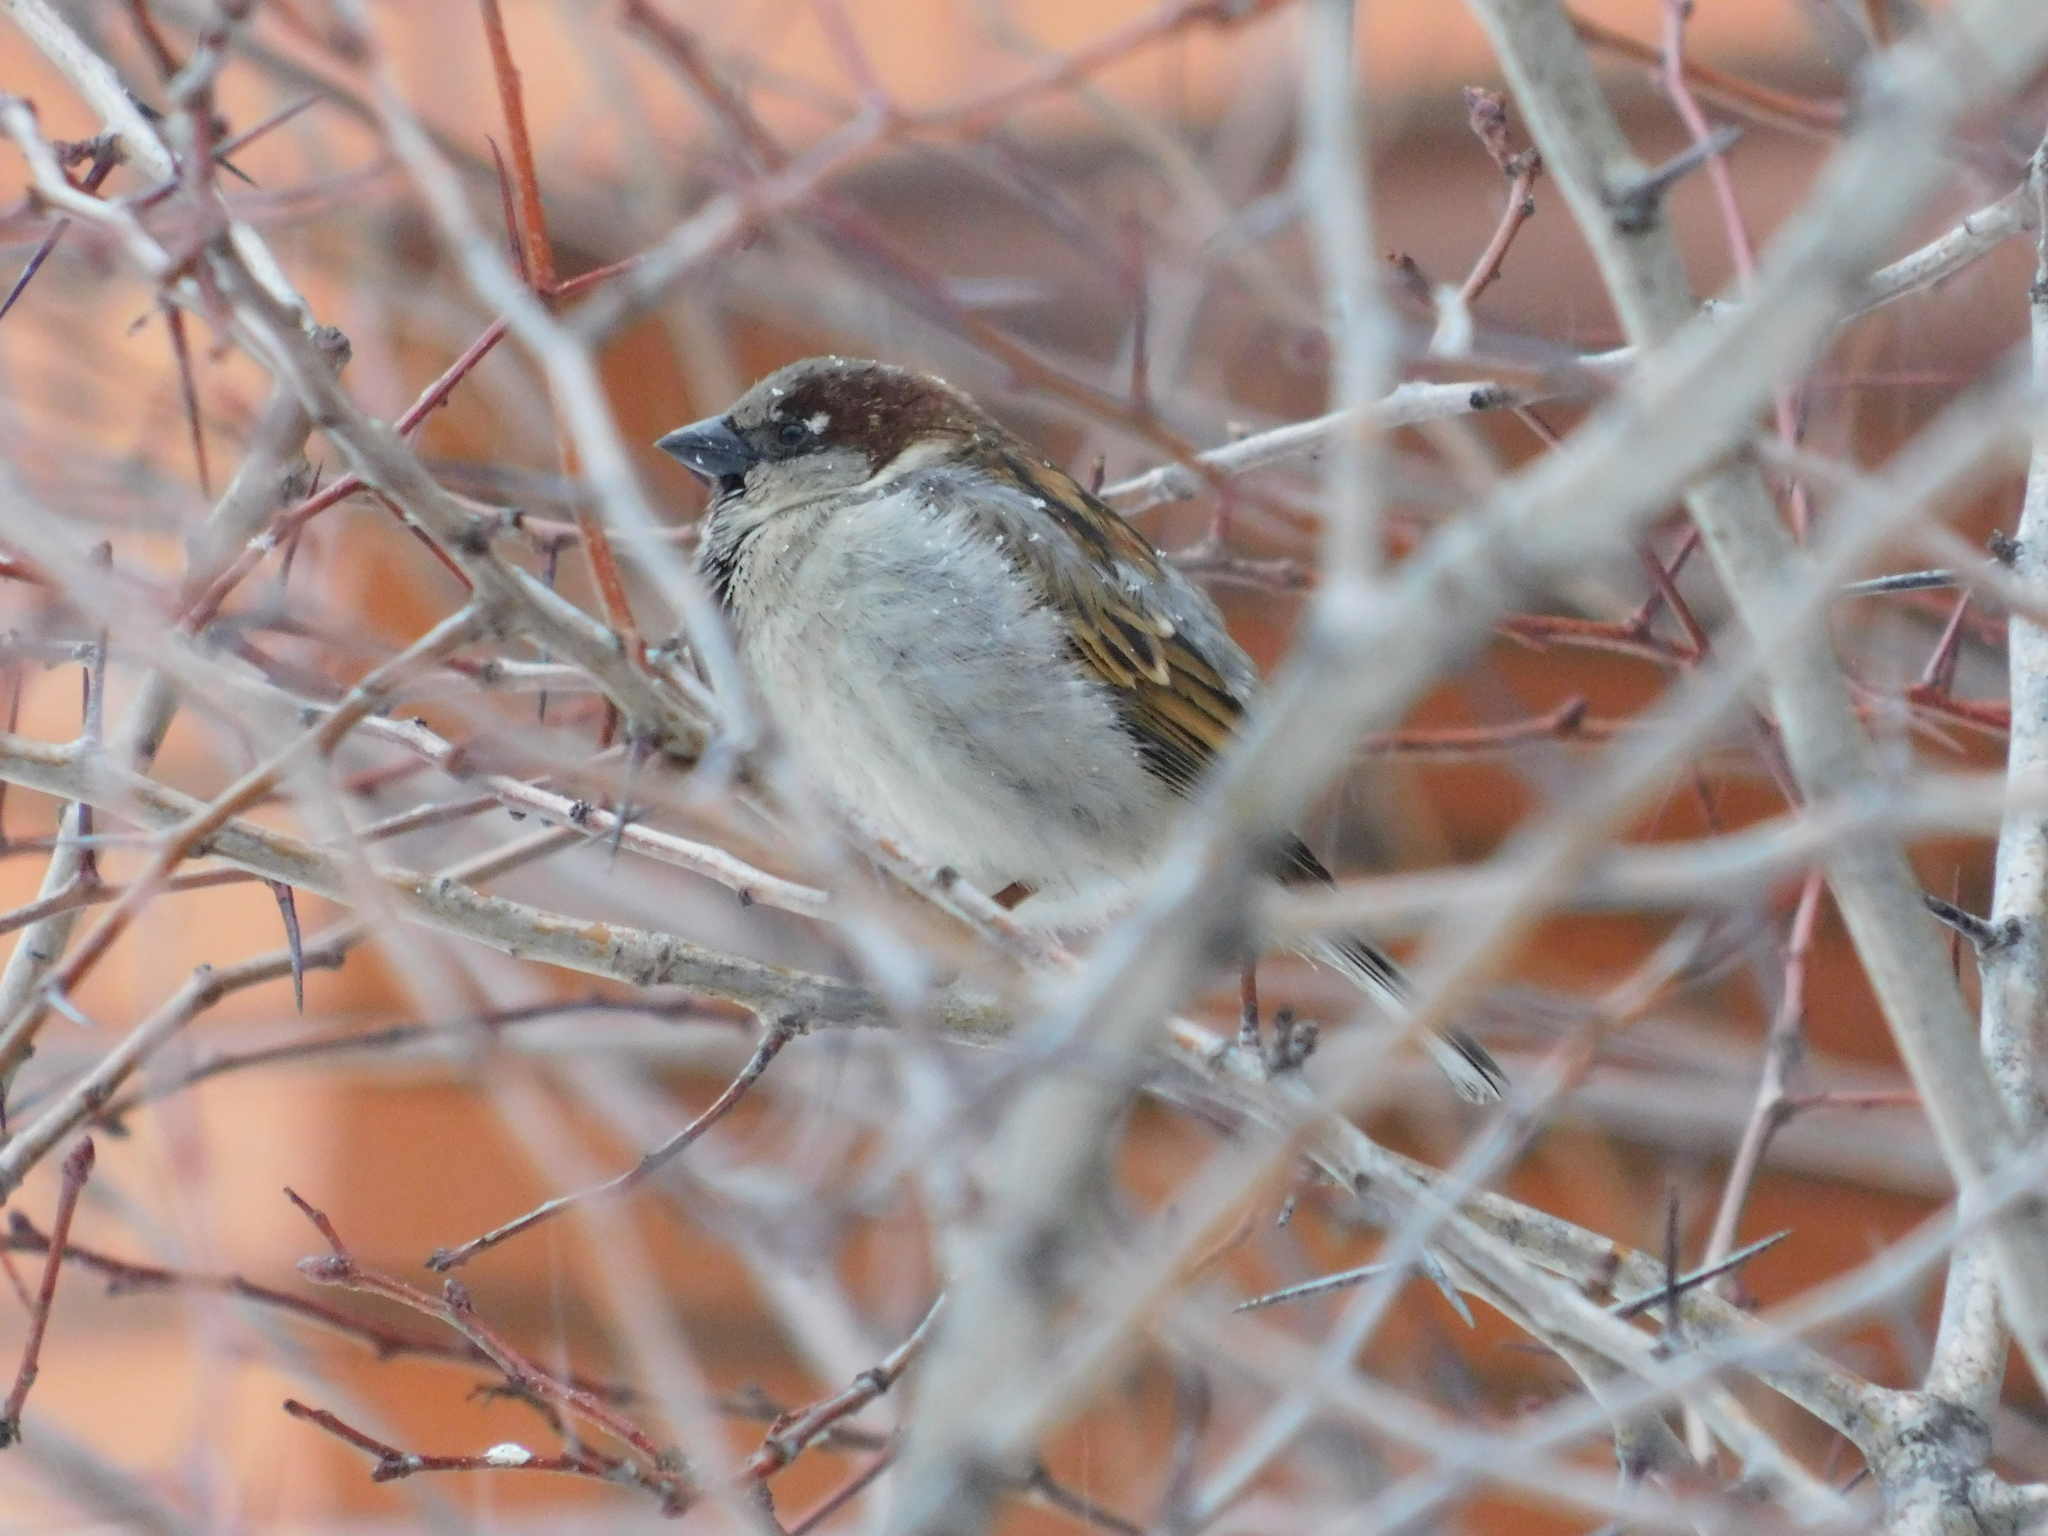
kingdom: Animalia
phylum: Chordata
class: Aves
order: Passeriformes
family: Passeridae
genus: Passer
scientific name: Passer domesticus
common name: House sparrow
